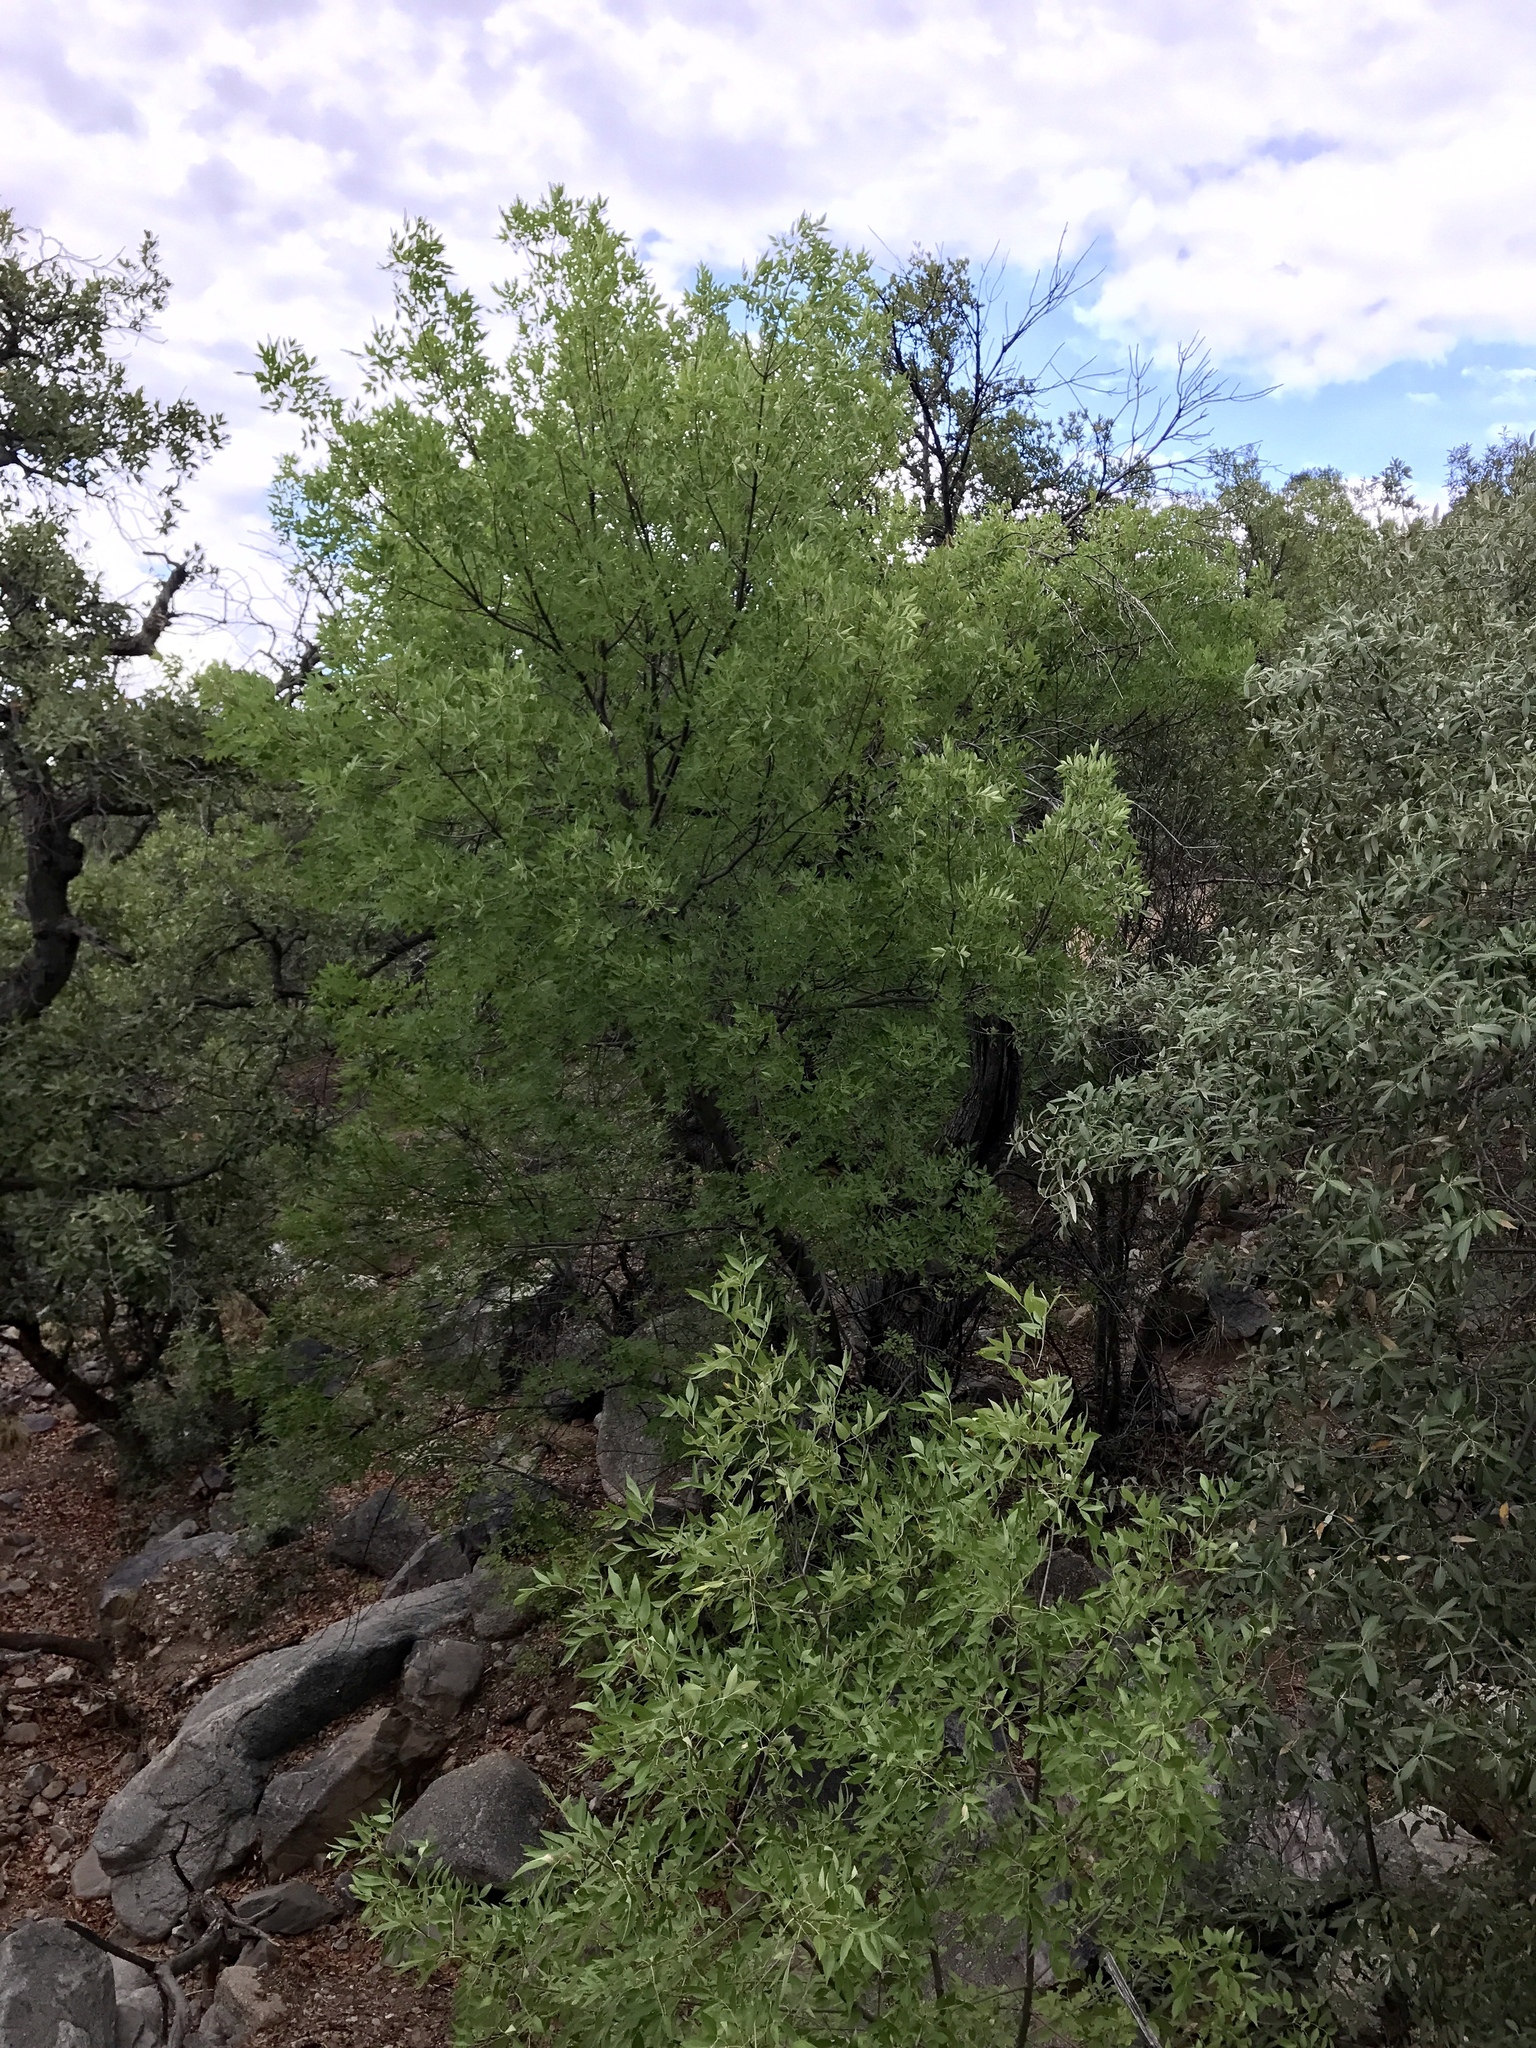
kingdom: Plantae
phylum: Tracheophyta
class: Magnoliopsida
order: Lamiales
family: Oleaceae
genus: Fraxinus
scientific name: Fraxinus papillosa
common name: Chihuahua ash
